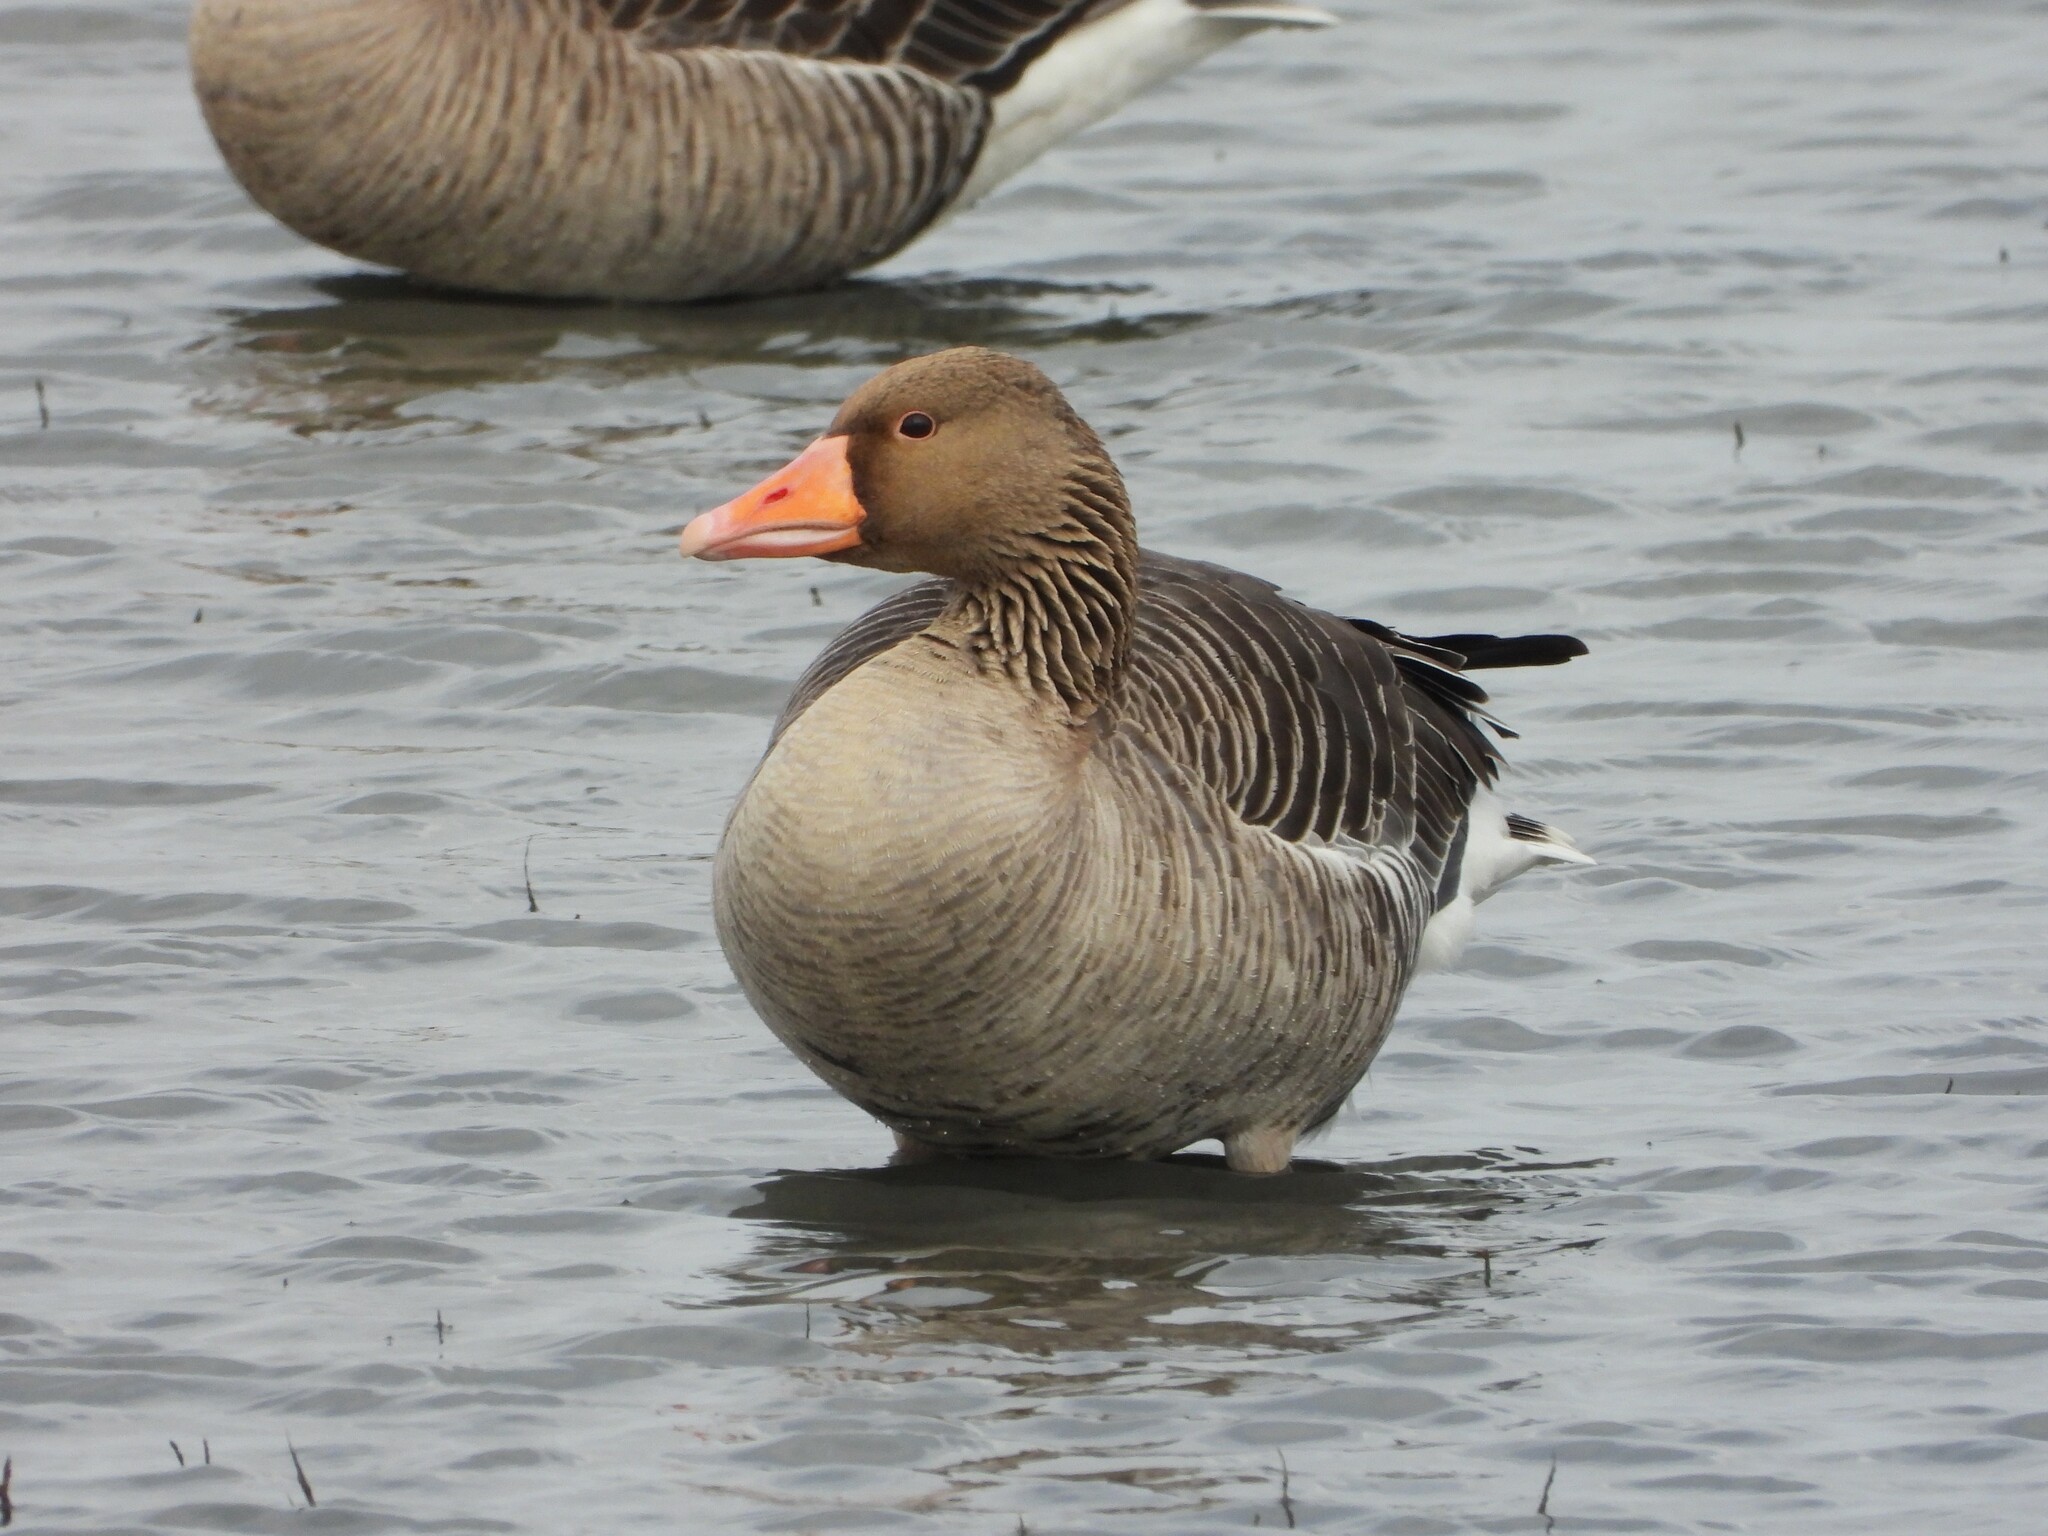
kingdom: Animalia
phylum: Chordata
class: Aves
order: Anseriformes
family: Anatidae
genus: Anser
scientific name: Anser anser
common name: Greylag goose
